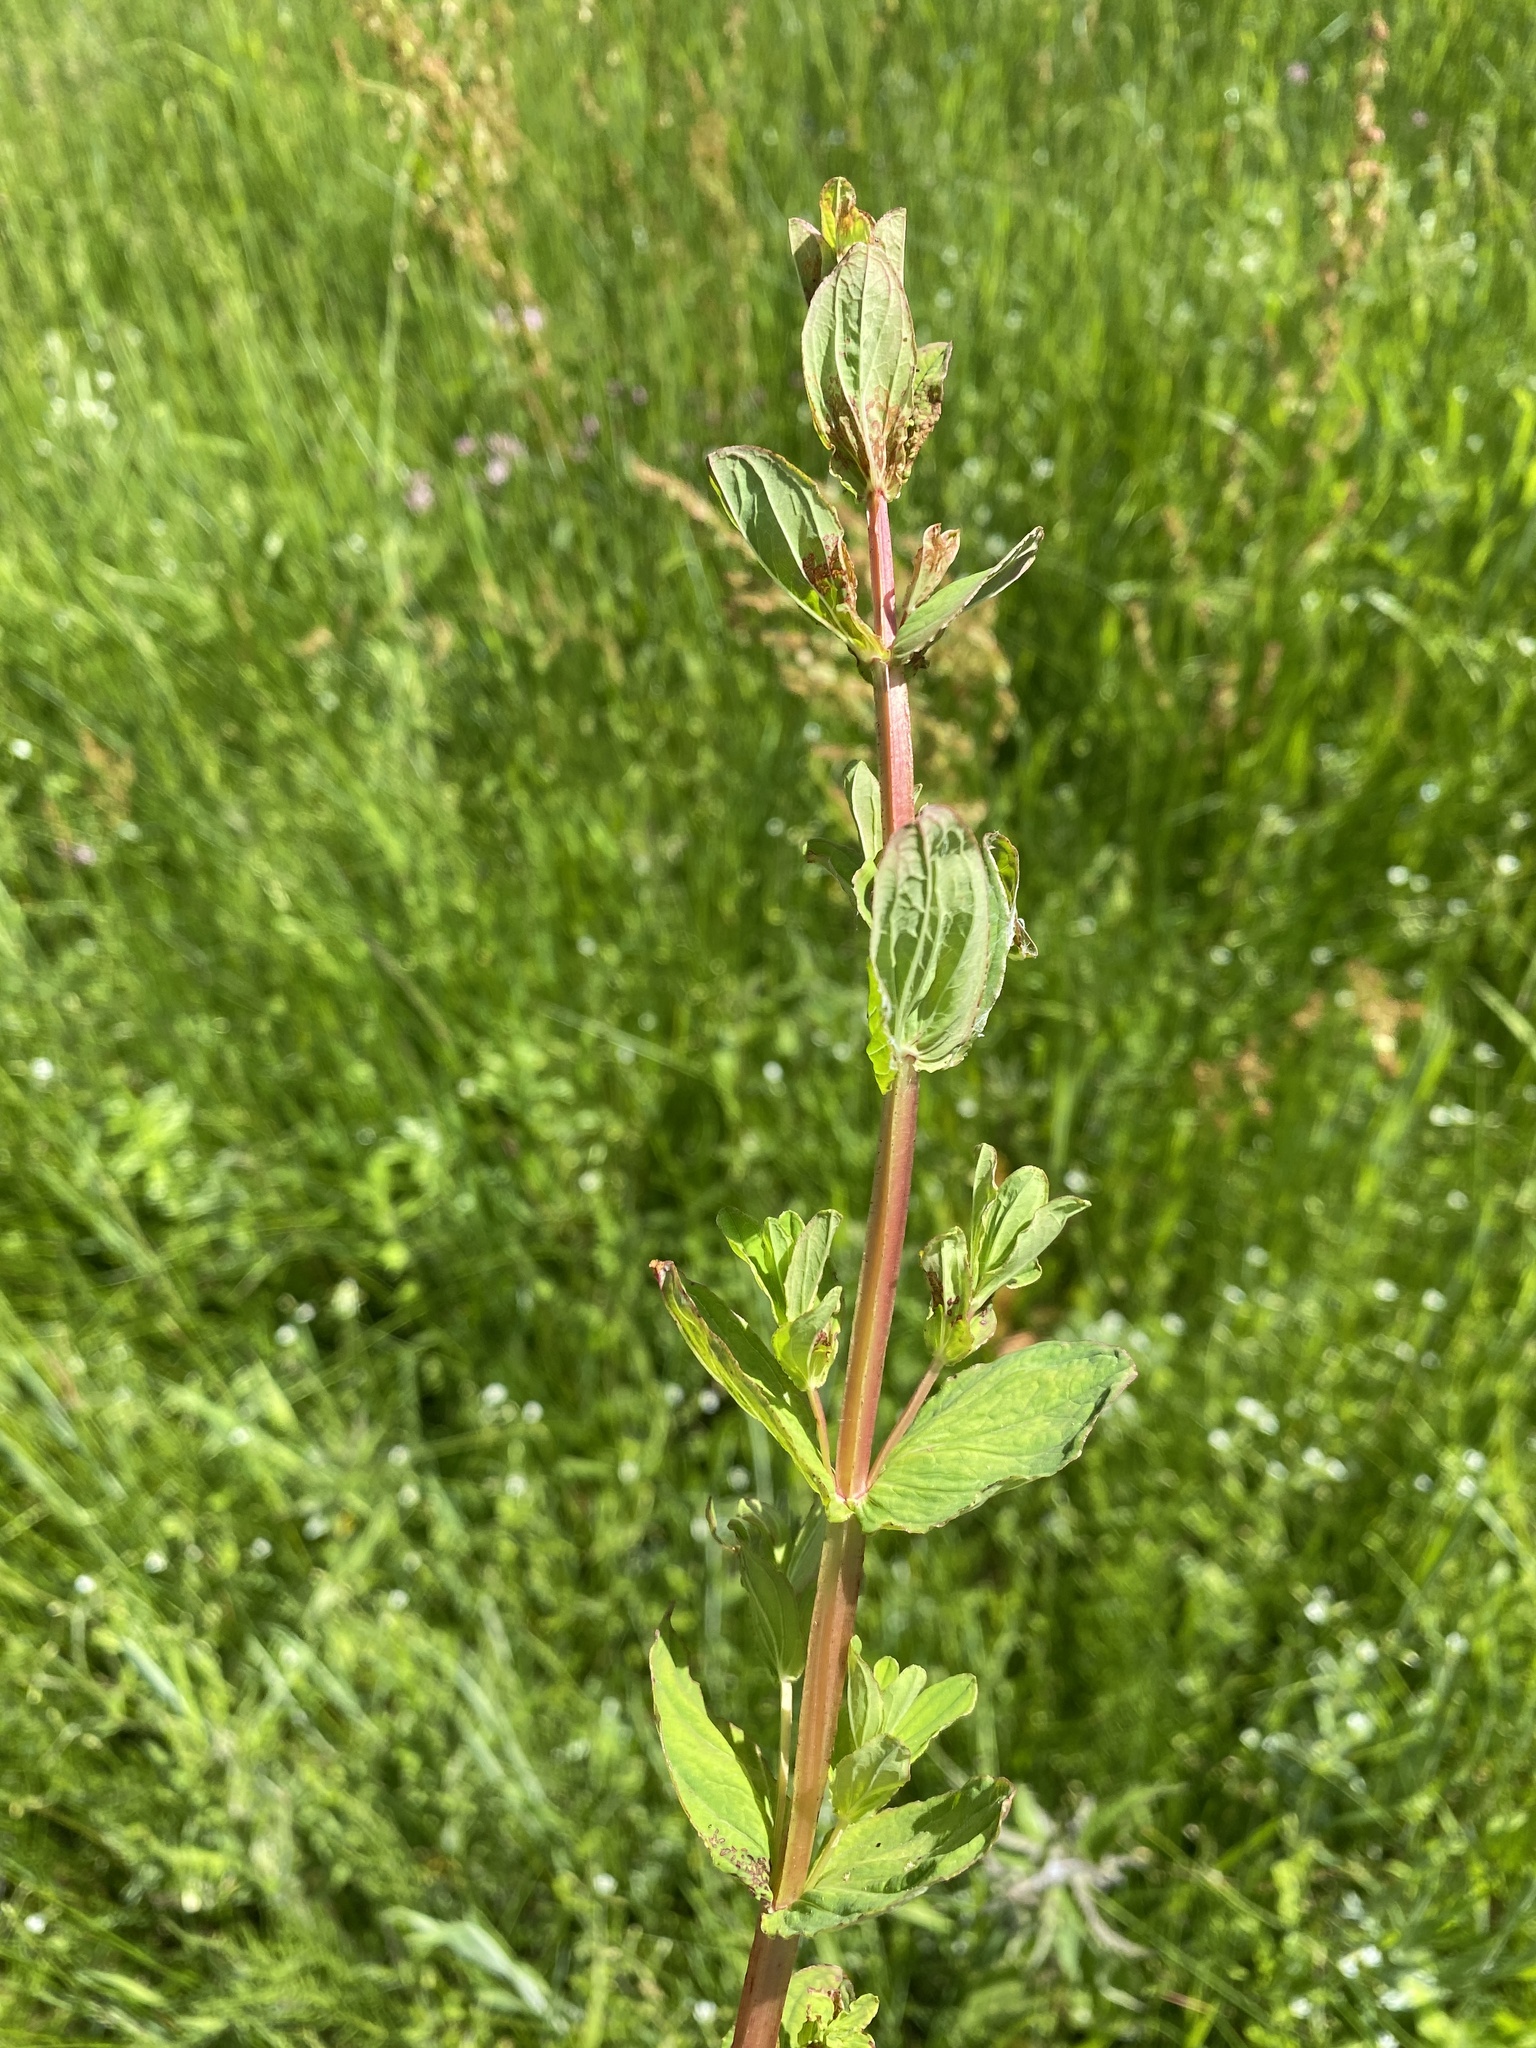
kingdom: Plantae
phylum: Tracheophyta
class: Magnoliopsida
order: Malpighiales
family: Hypericaceae
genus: Hypericum
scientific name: Hypericum tetrapterum
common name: Square-stalked st. john's-wort
